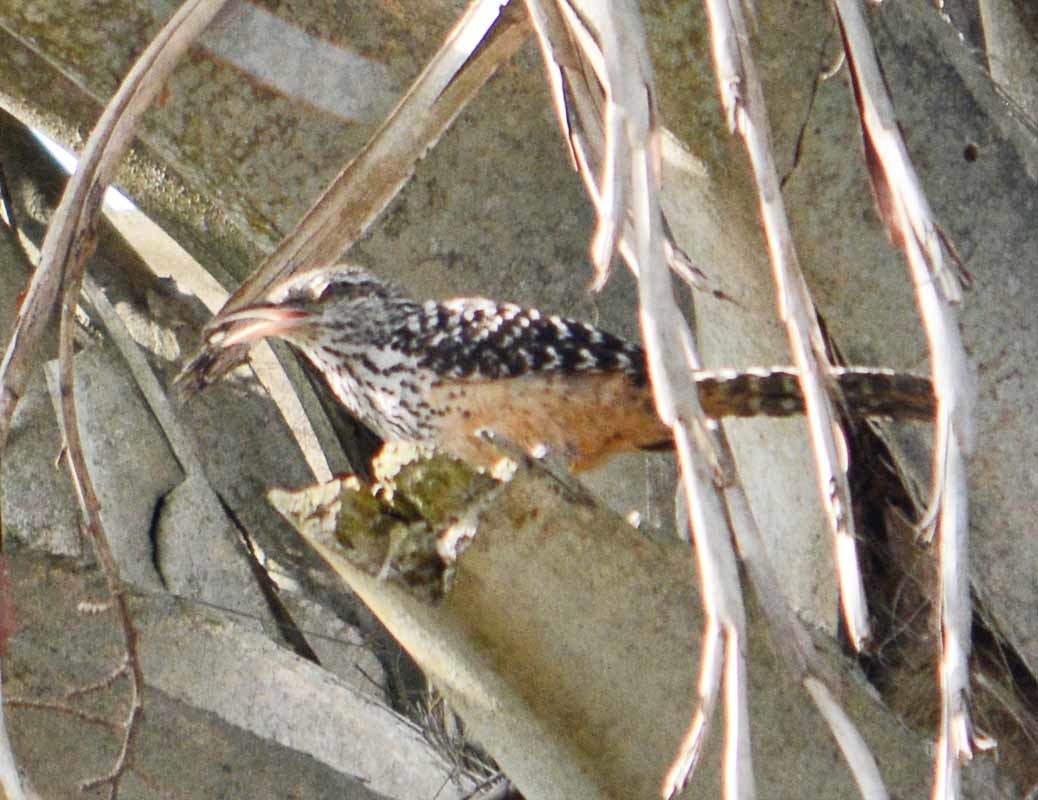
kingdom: Animalia
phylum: Chordata
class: Aves
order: Passeriformes
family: Troglodytidae
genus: Campylorhynchus
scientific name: Campylorhynchus zonatus
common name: Band-backed wren
